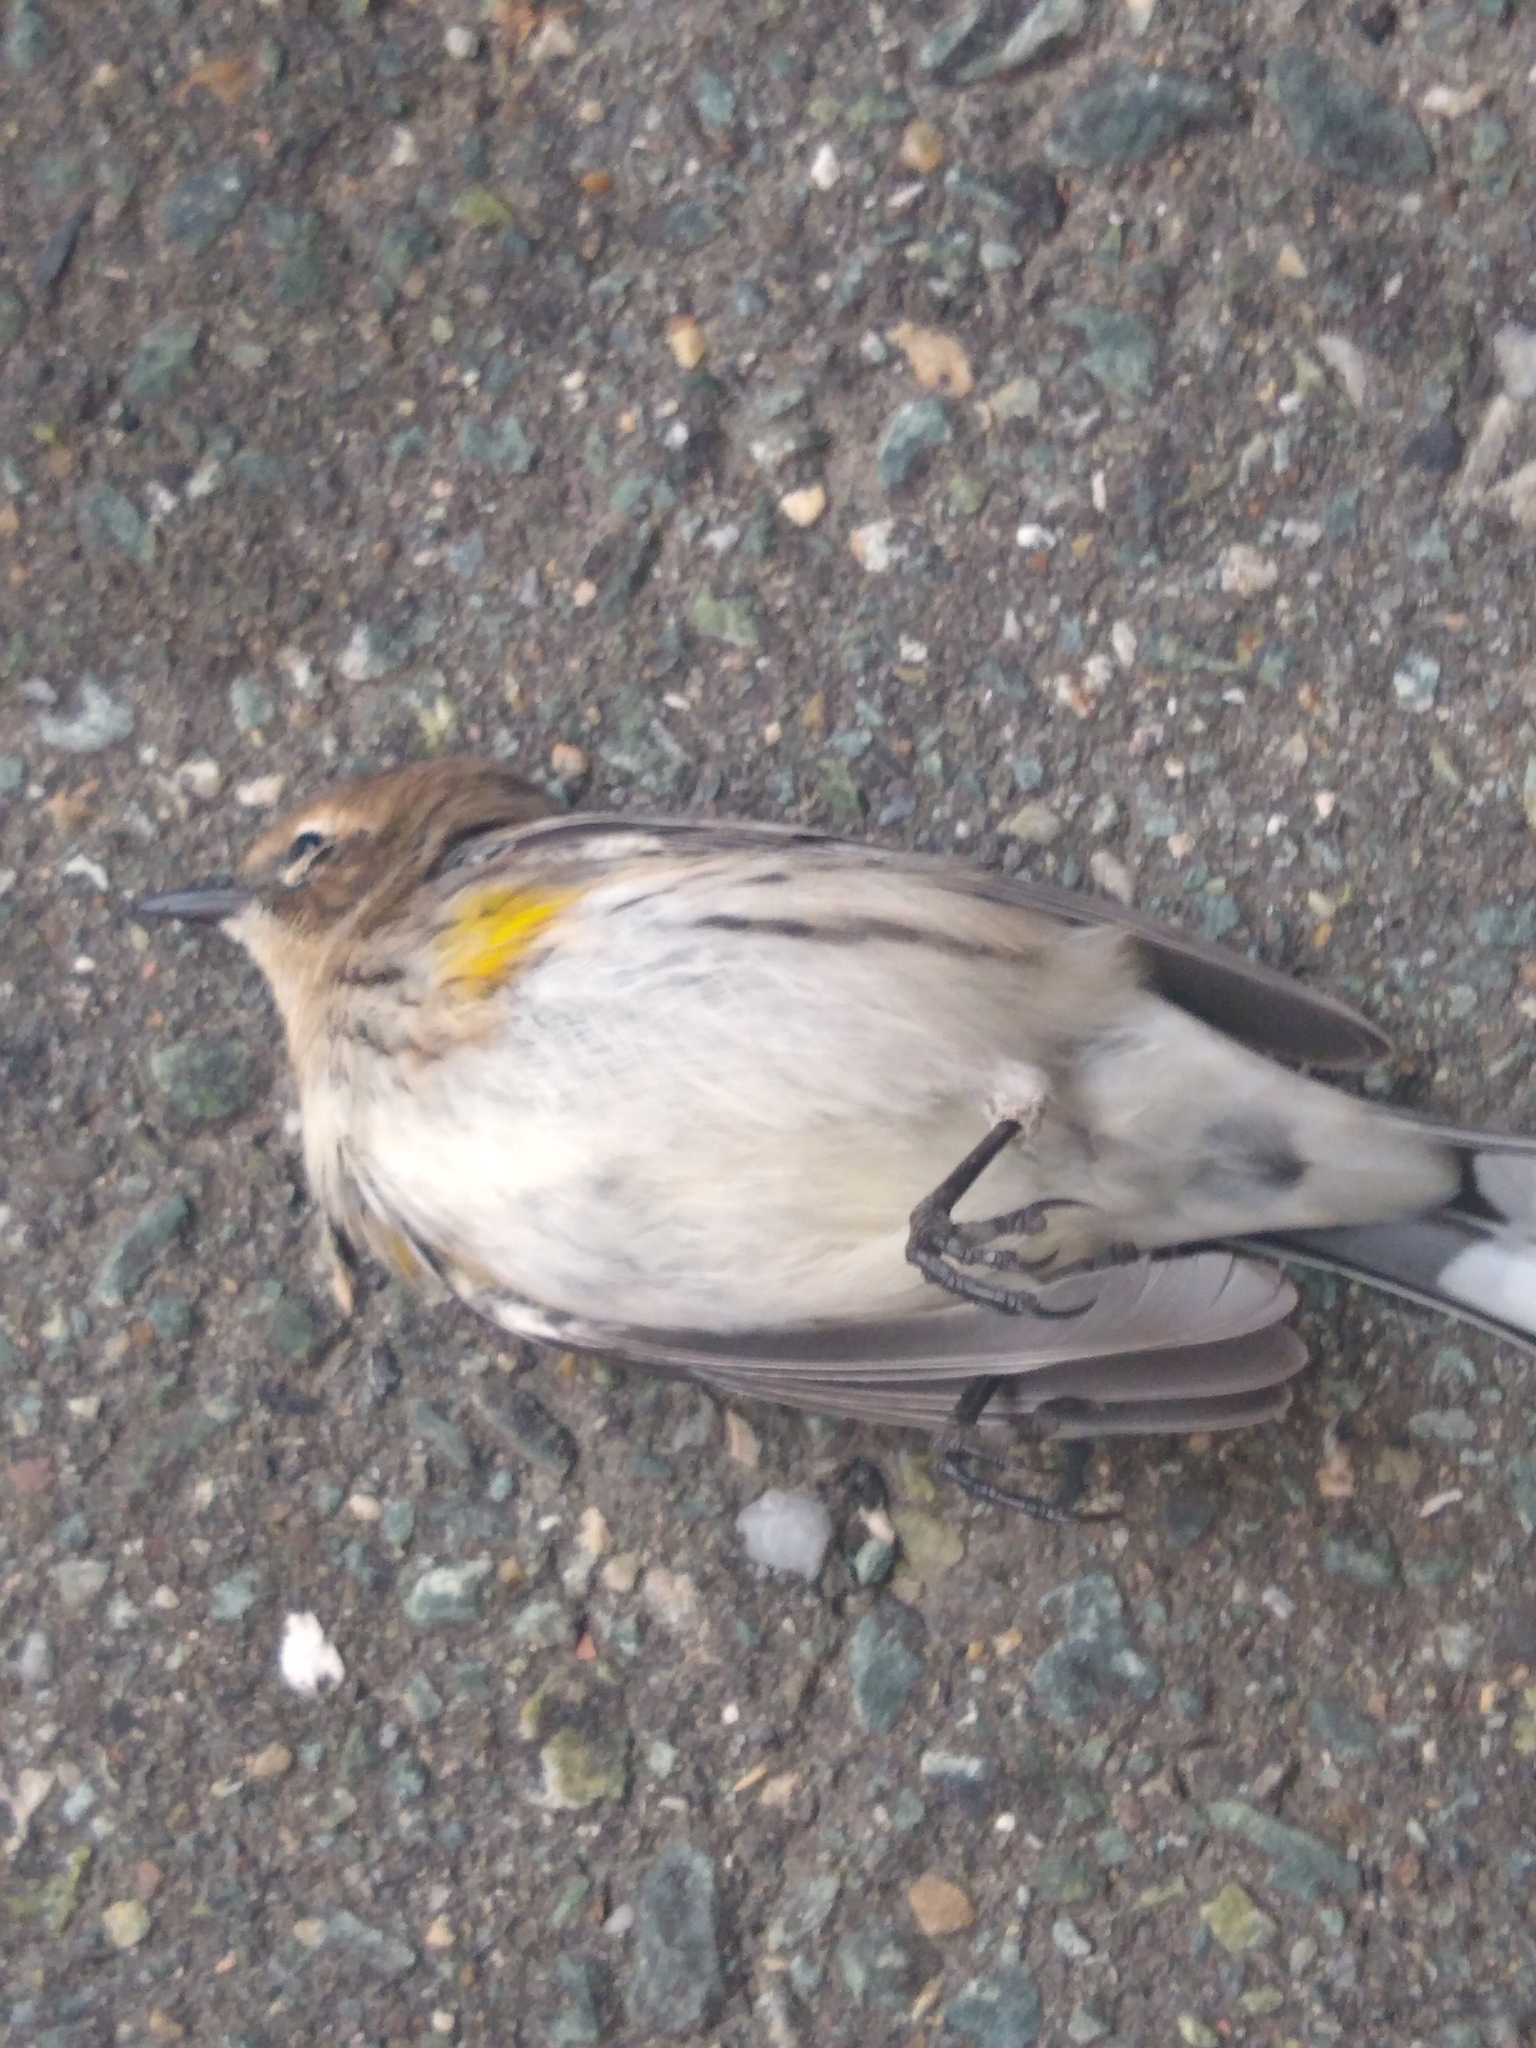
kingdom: Animalia
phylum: Chordata
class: Aves
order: Passeriformes
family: Parulidae
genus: Setophaga
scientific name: Setophaga coronata
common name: Myrtle warbler
